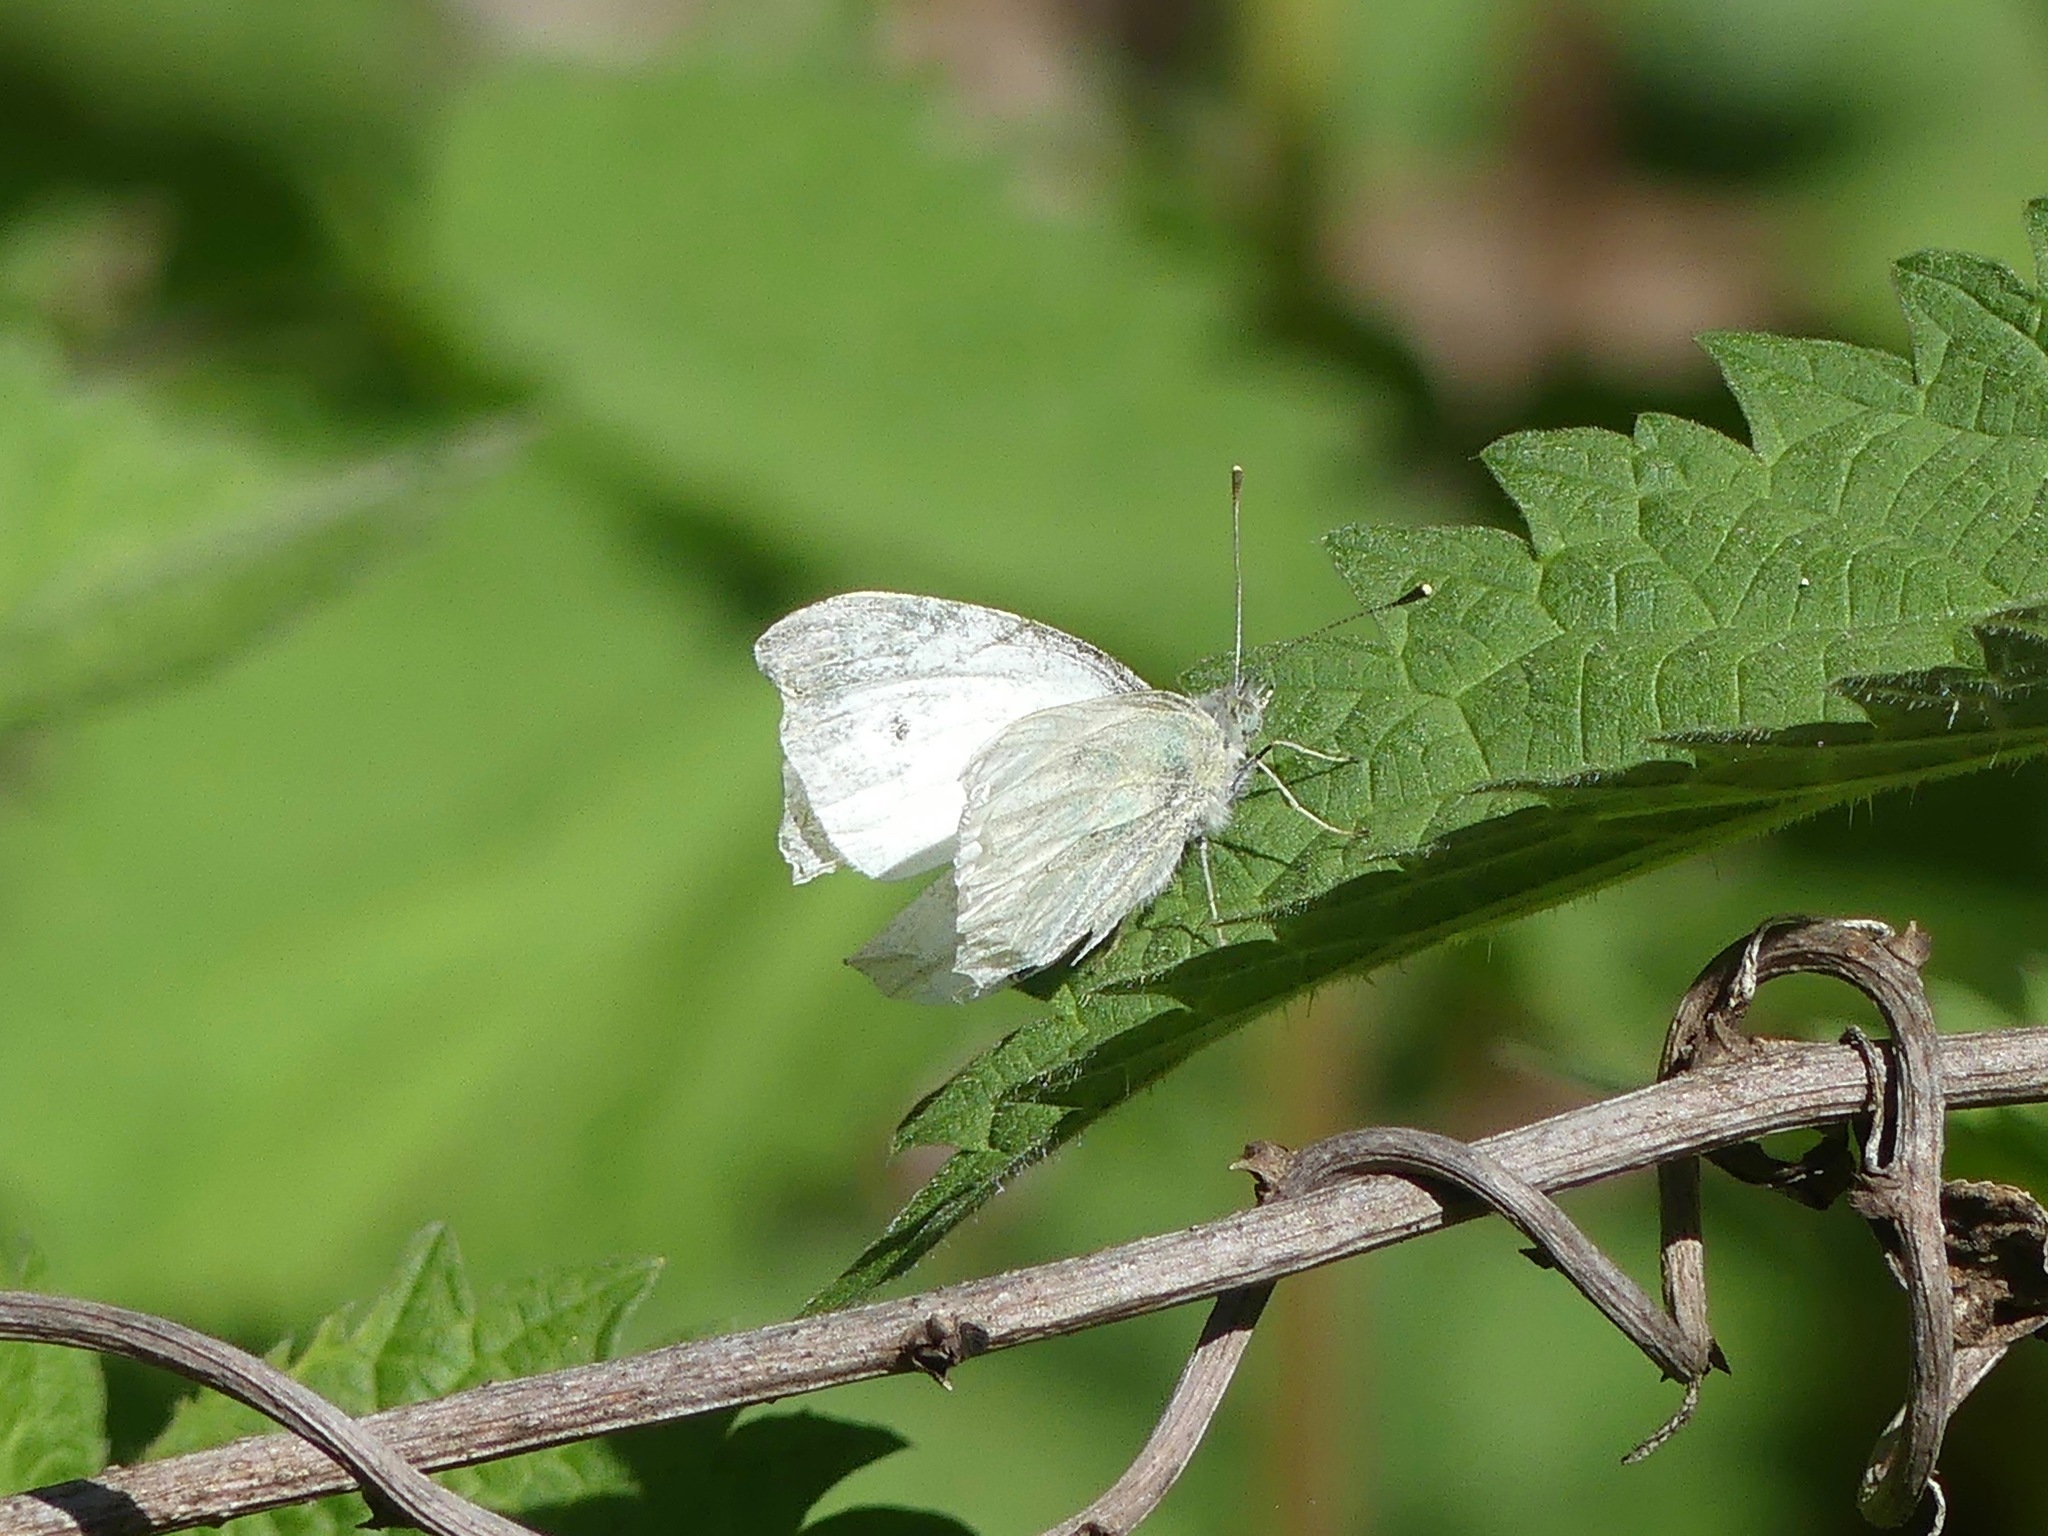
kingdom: Animalia
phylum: Arthropoda
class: Insecta
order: Lepidoptera
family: Pieridae
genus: Pieris
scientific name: Pieris rapae
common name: Small white
